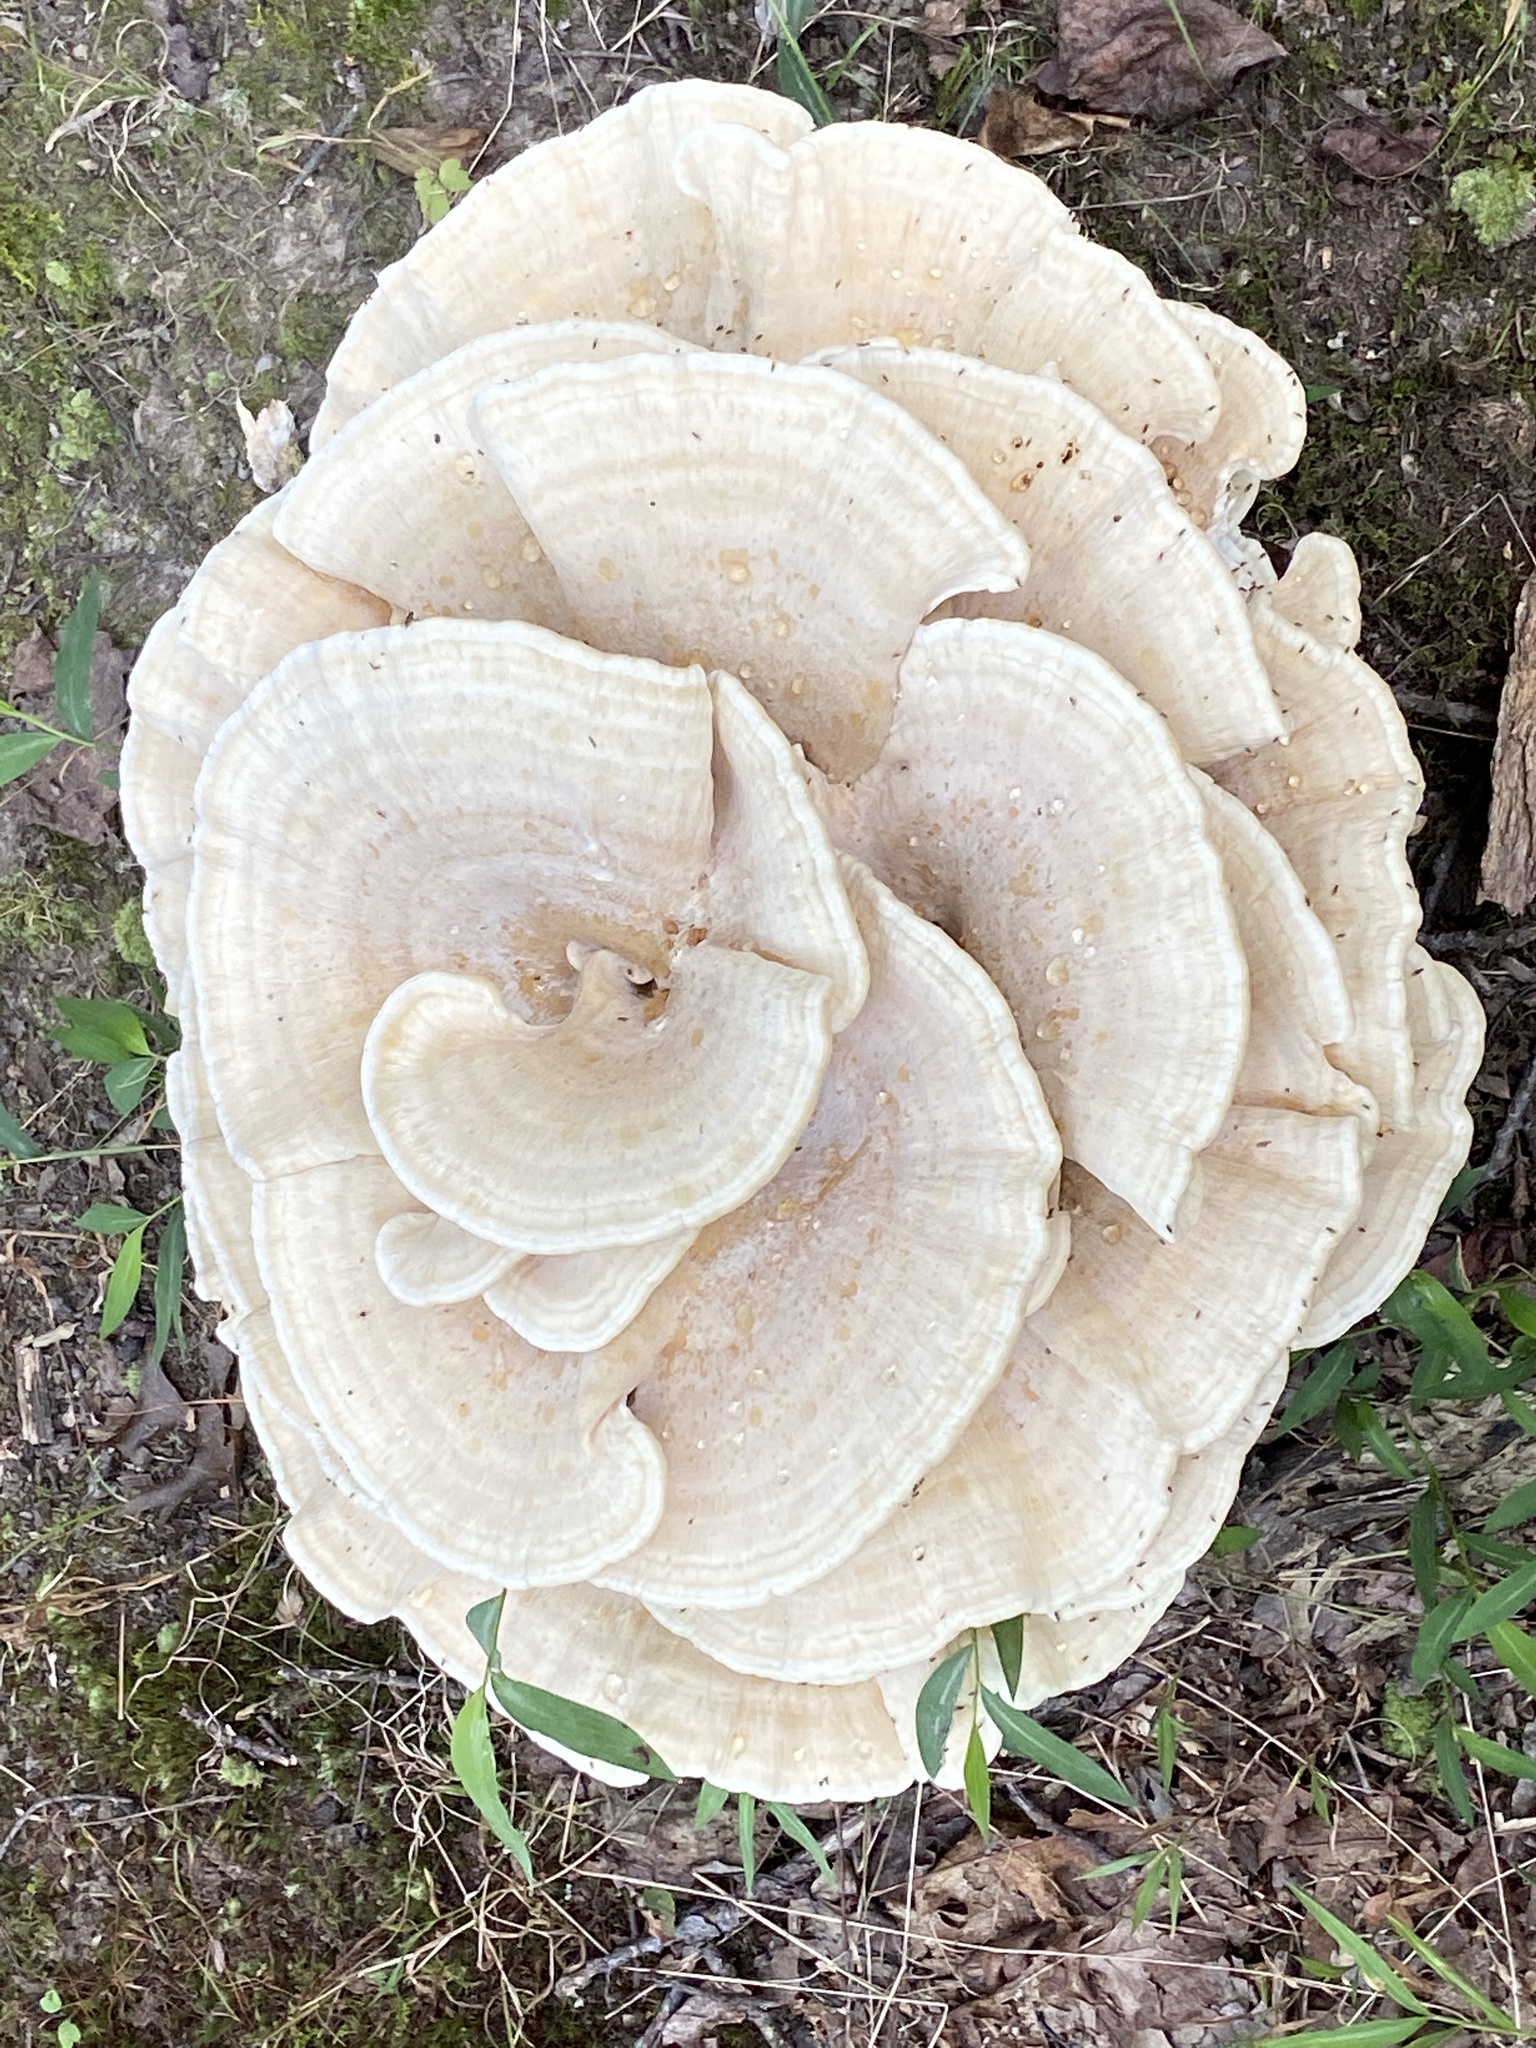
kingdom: Fungi
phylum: Basidiomycota
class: Agaricomycetes
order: Russulales
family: Bondarzewiaceae
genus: Bondarzewia
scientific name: Bondarzewia berkeleyi
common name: Berkeley's polypore
